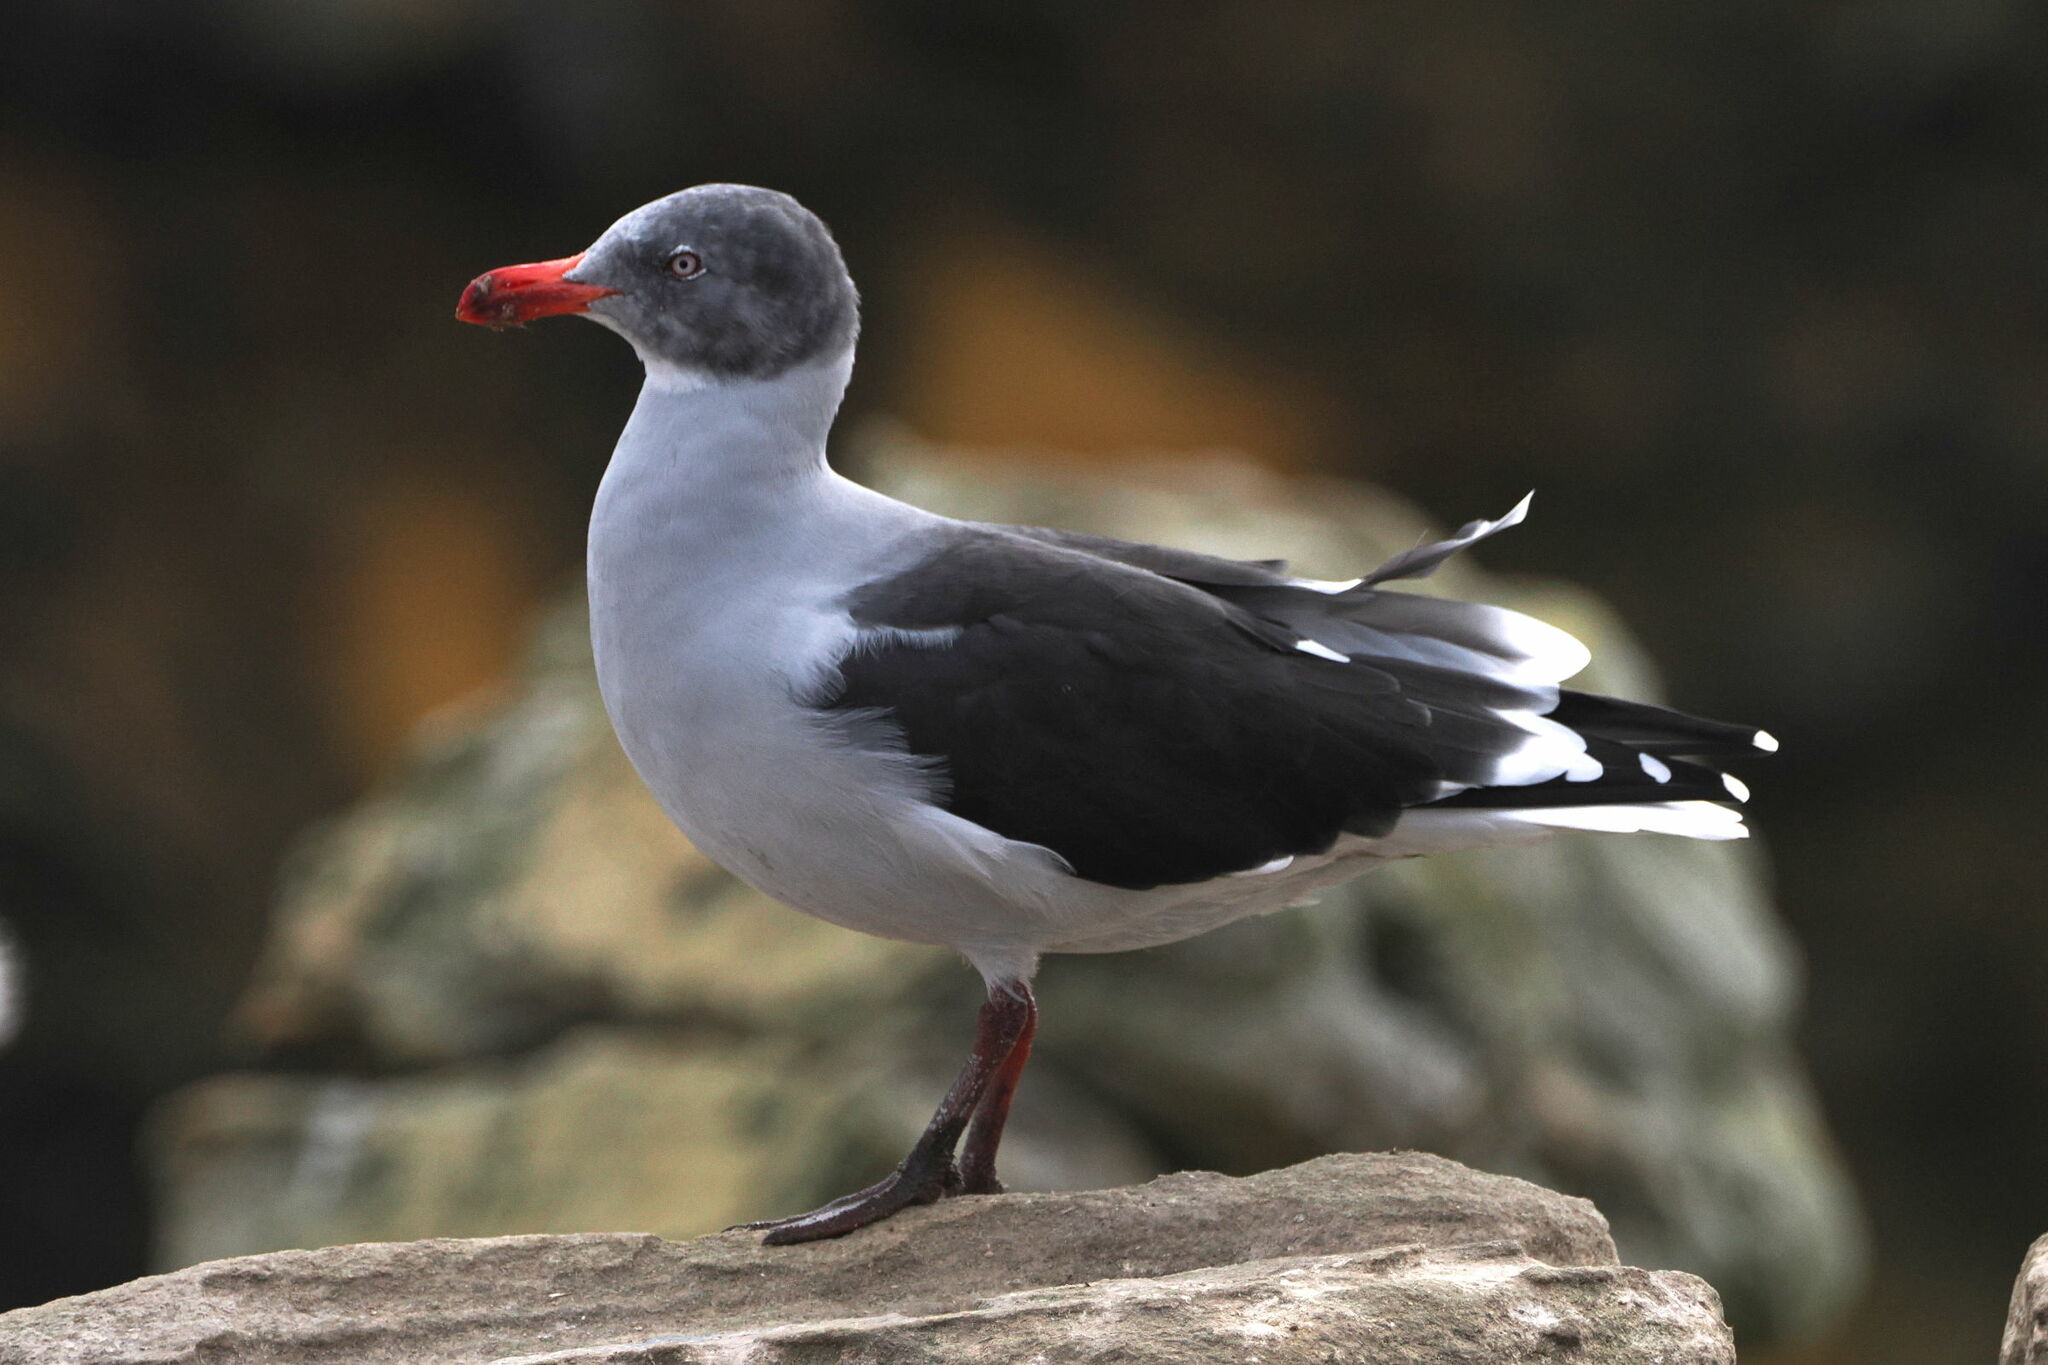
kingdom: Animalia
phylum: Chordata
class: Aves
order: Charadriiformes
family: Laridae
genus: Leucophaeus
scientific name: Leucophaeus scoresbii
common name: Dolphin gull
